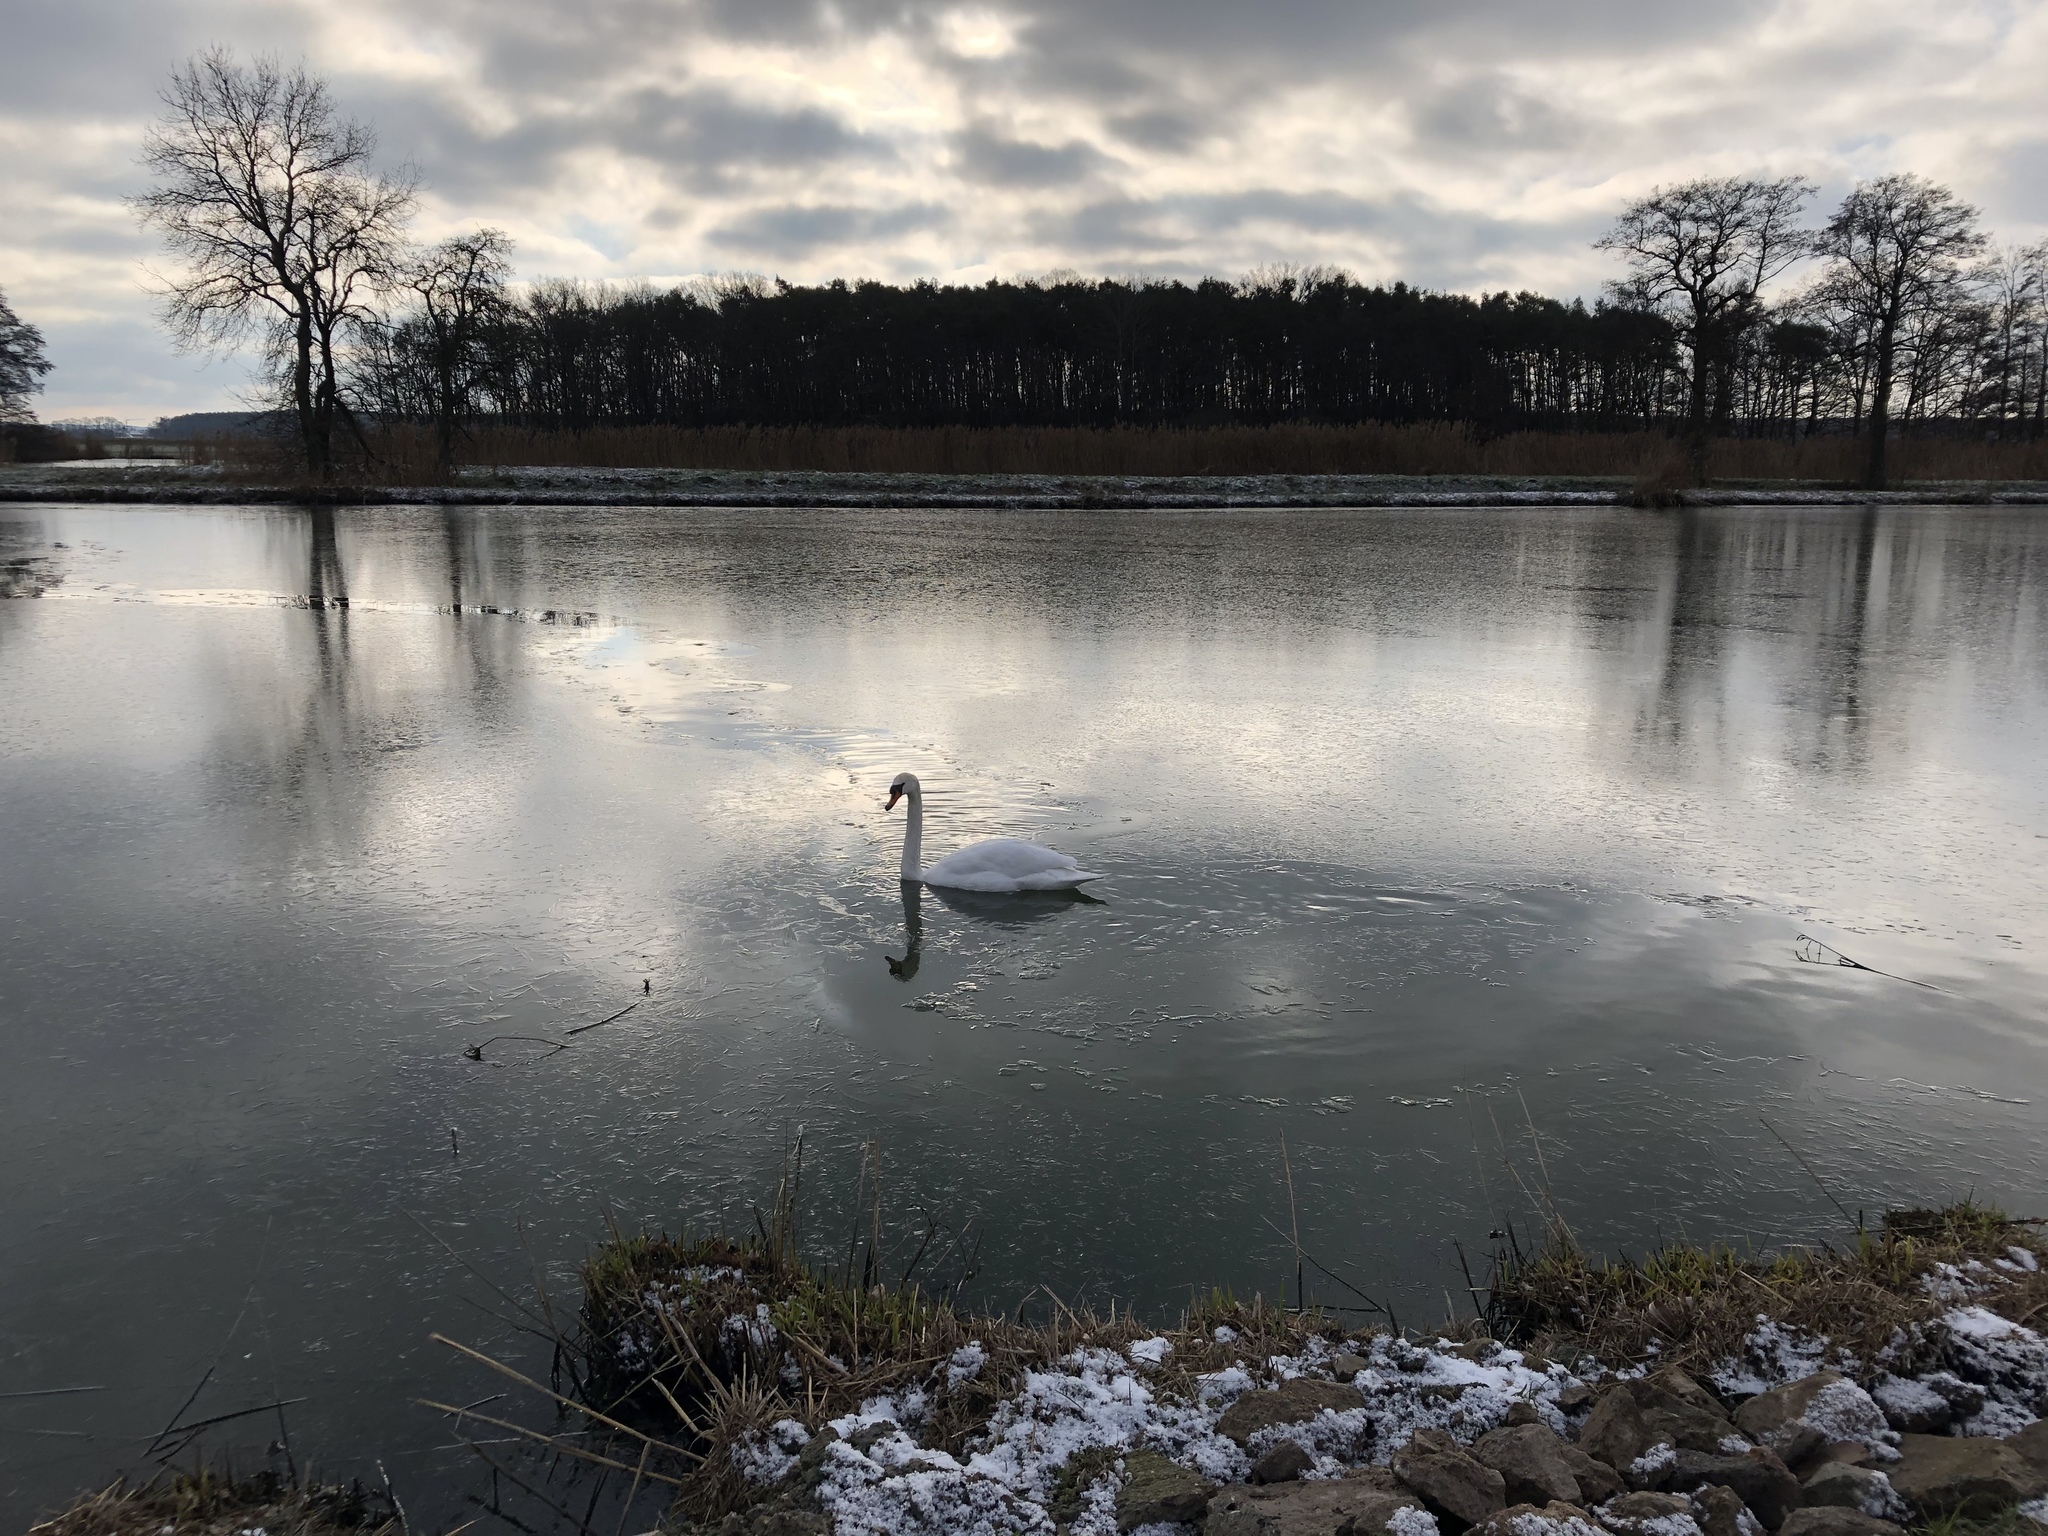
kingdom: Animalia
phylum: Chordata
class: Aves
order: Anseriformes
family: Anatidae
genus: Cygnus
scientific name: Cygnus olor
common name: Mute swan
